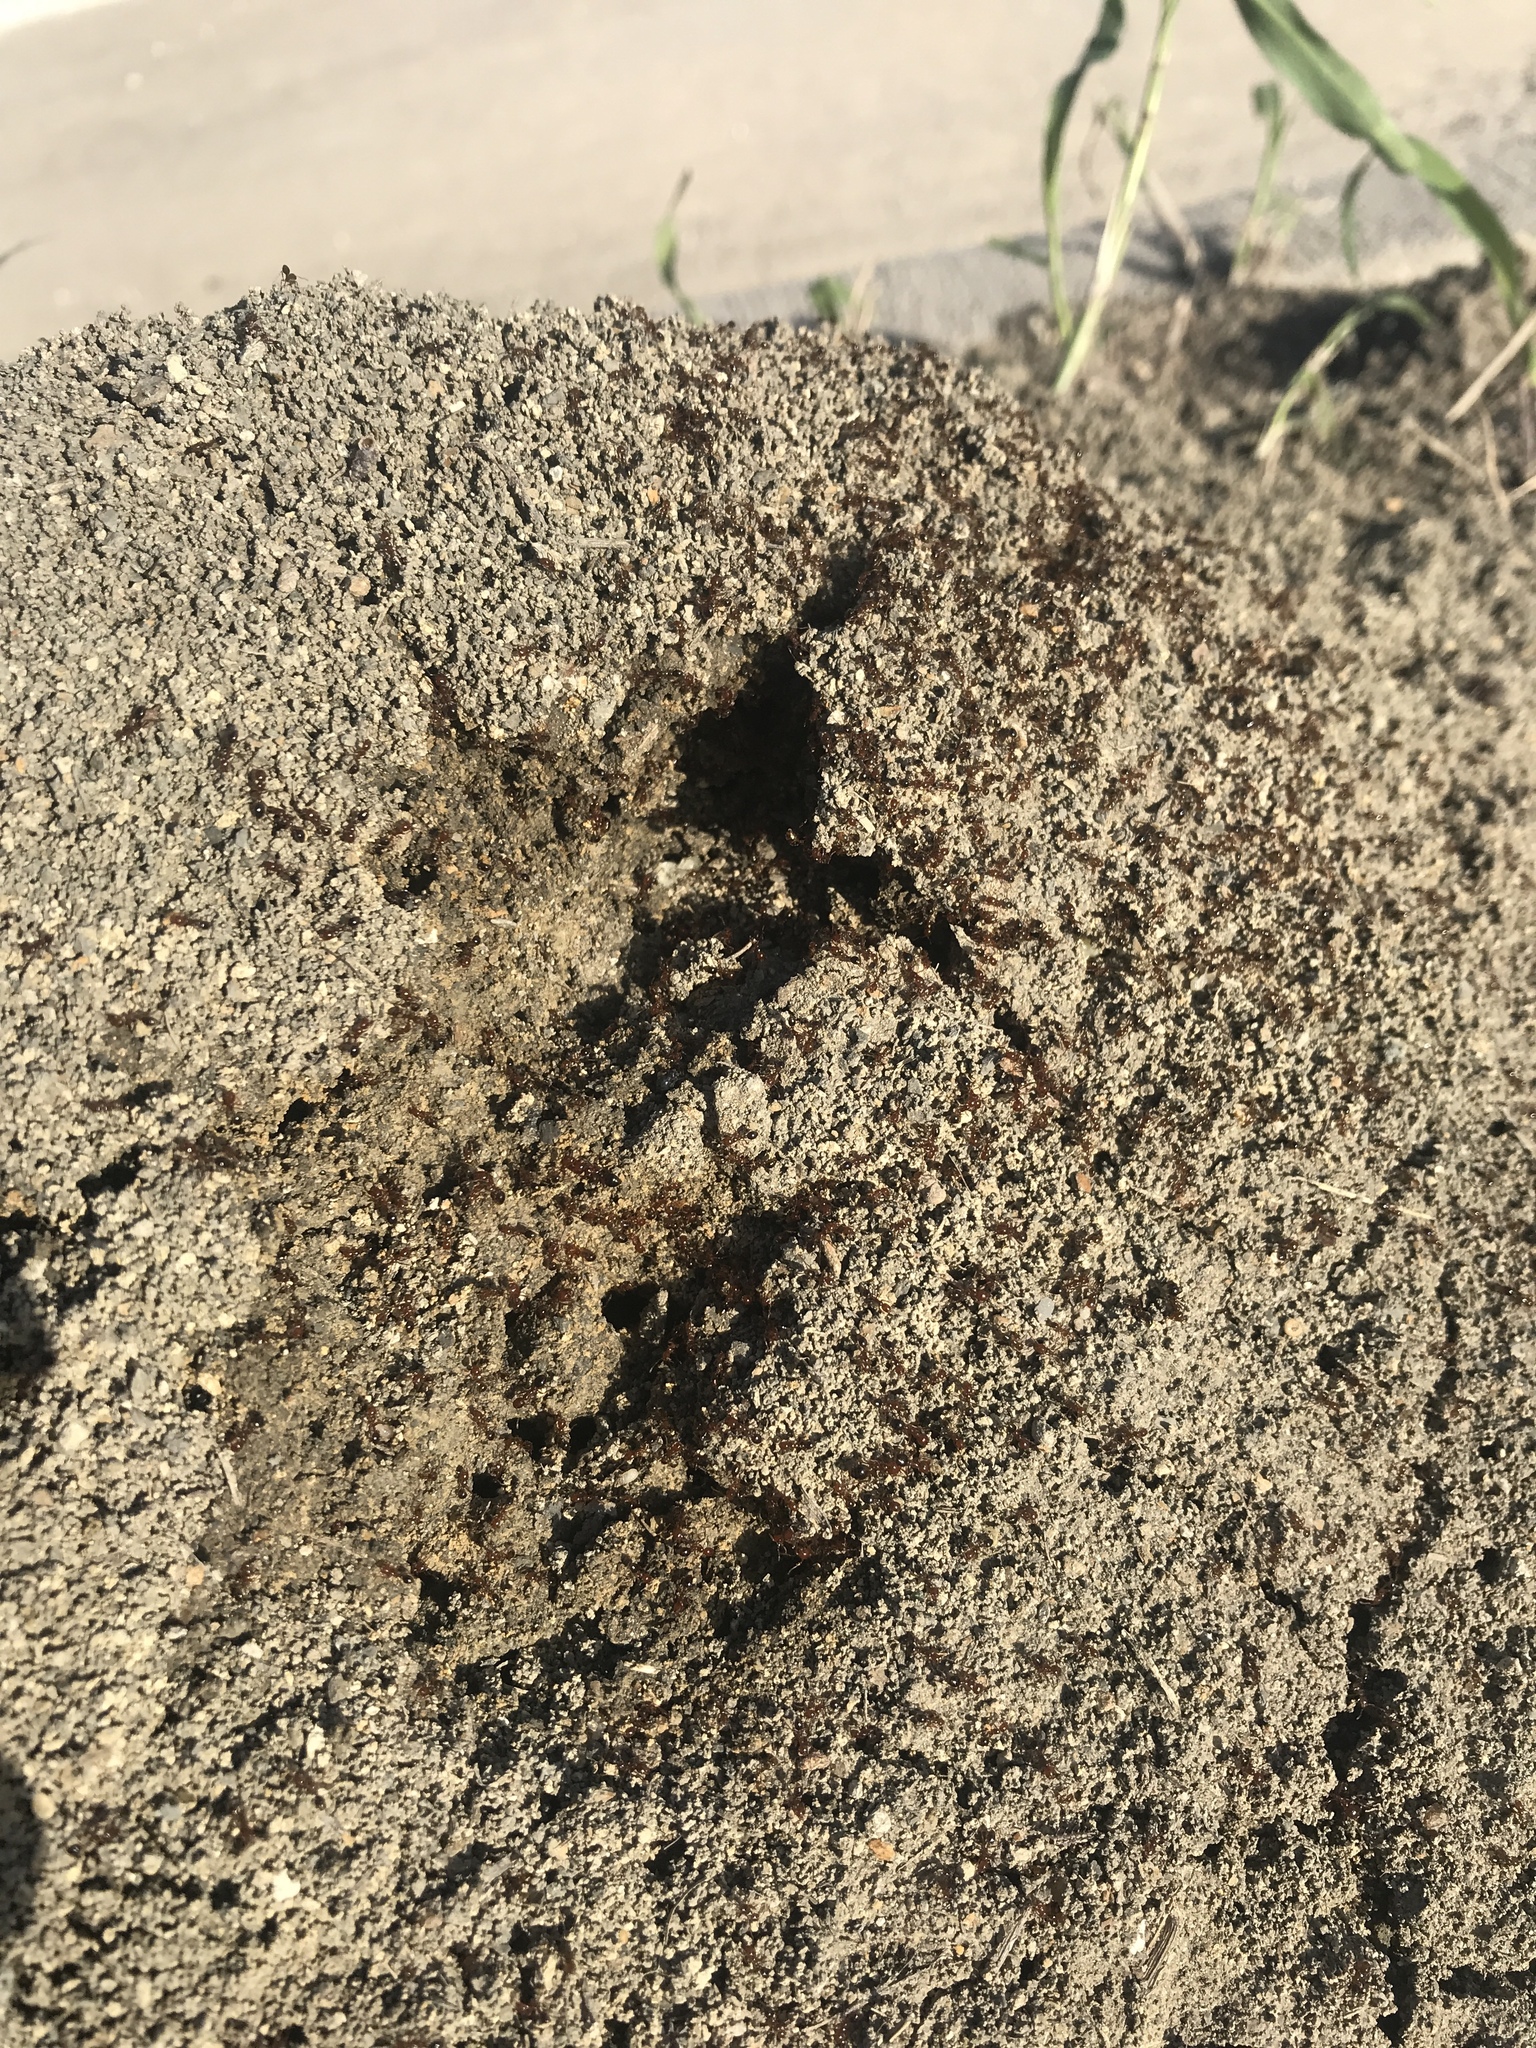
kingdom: Animalia
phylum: Arthropoda
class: Insecta
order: Hymenoptera
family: Formicidae
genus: Solenopsis
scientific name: Solenopsis invicta
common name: Red imported fire ant
